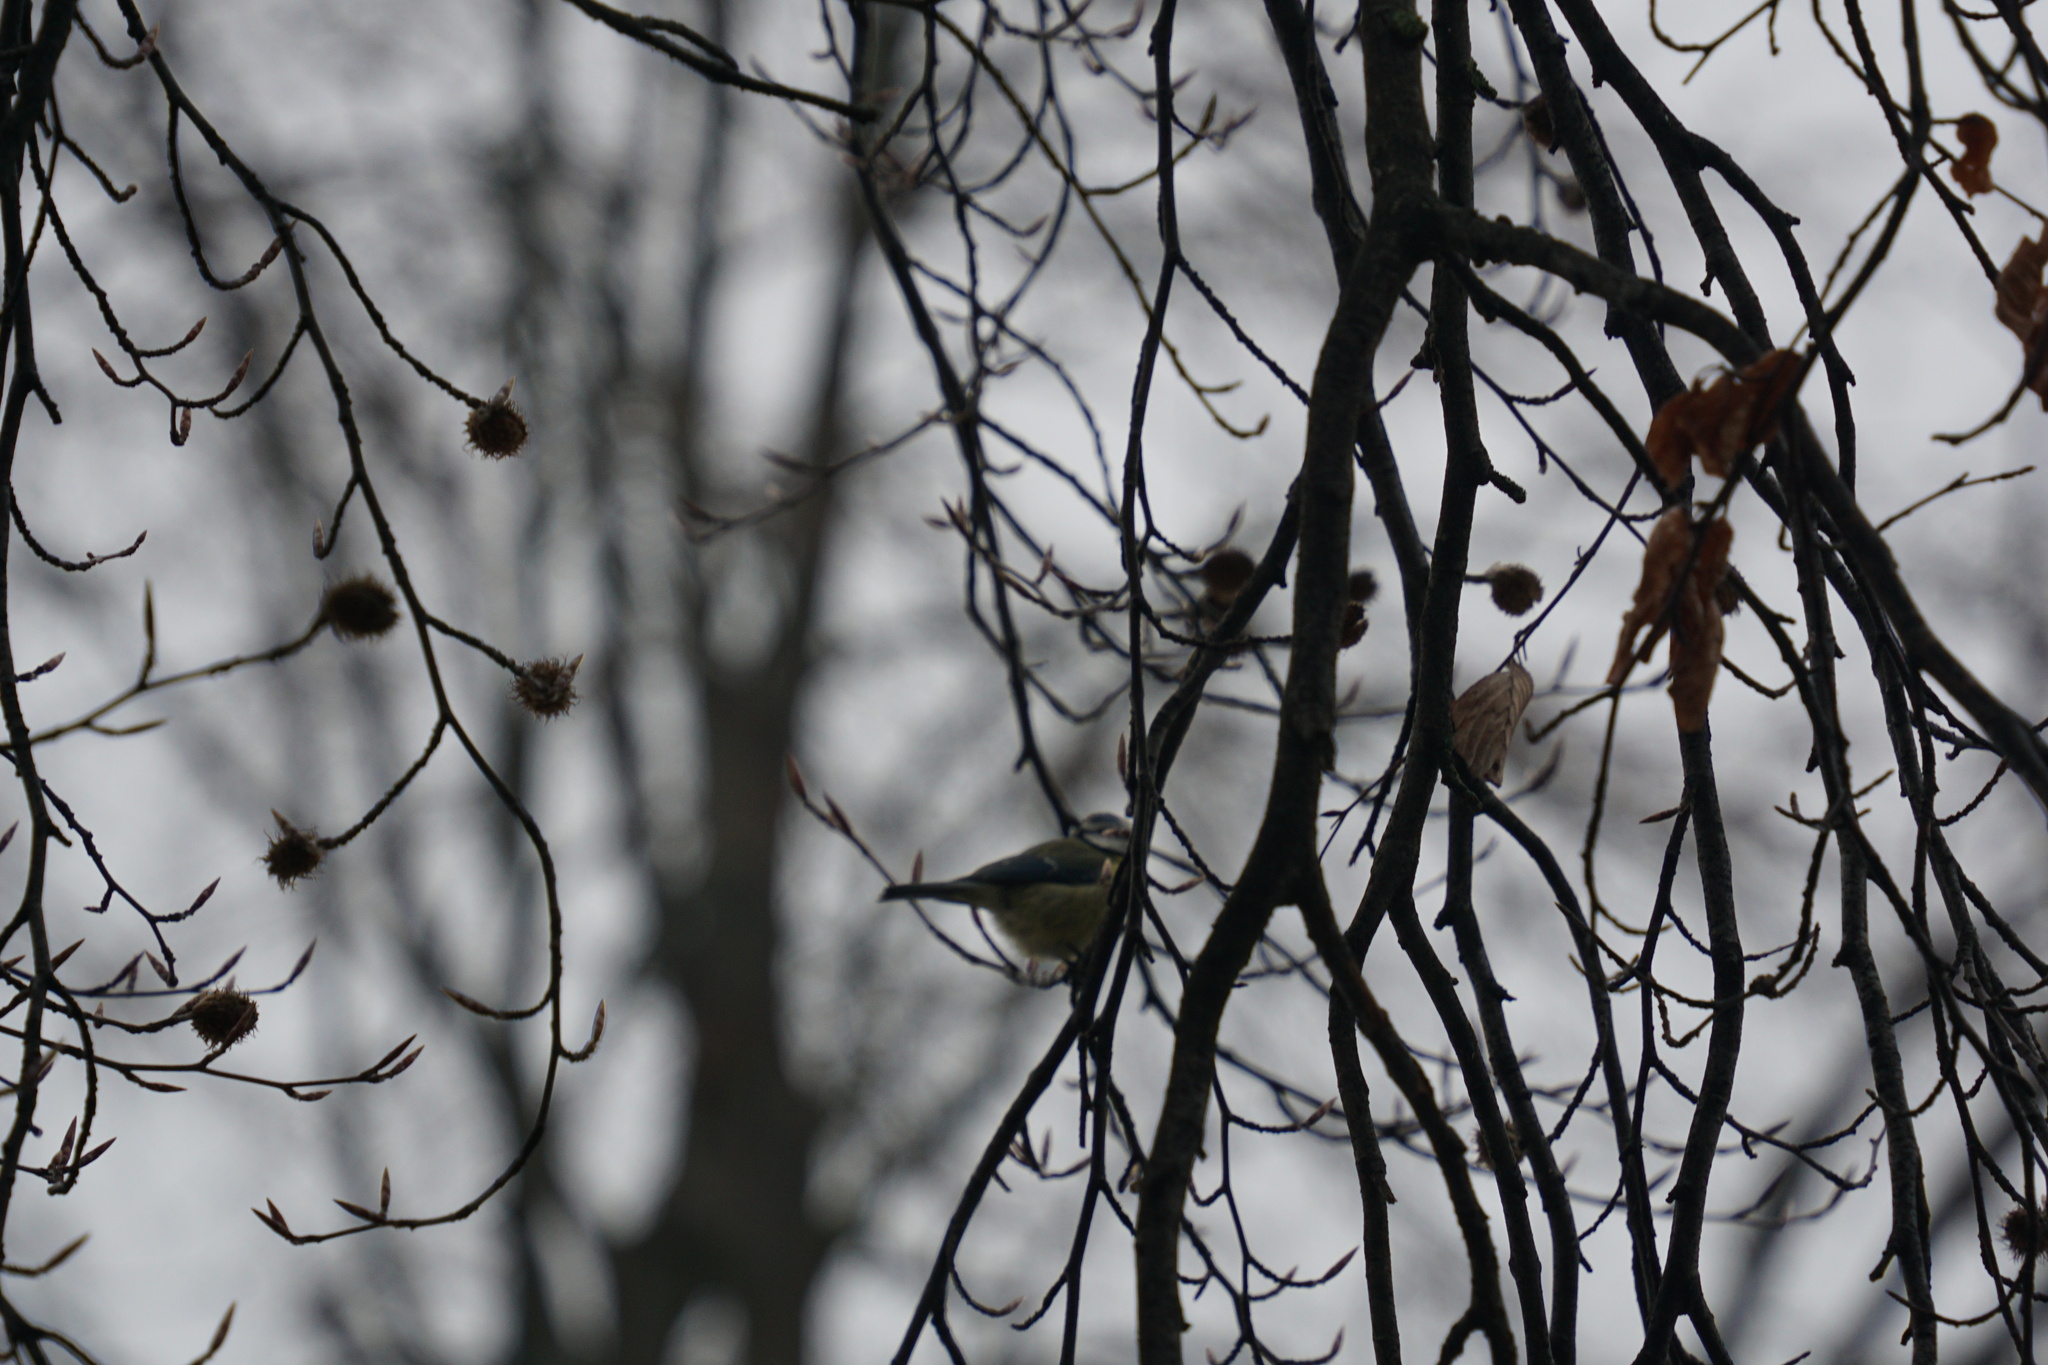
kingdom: Animalia
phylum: Chordata
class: Aves
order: Passeriformes
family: Paridae
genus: Cyanistes
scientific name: Cyanistes caeruleus
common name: Eurasian blue tit
